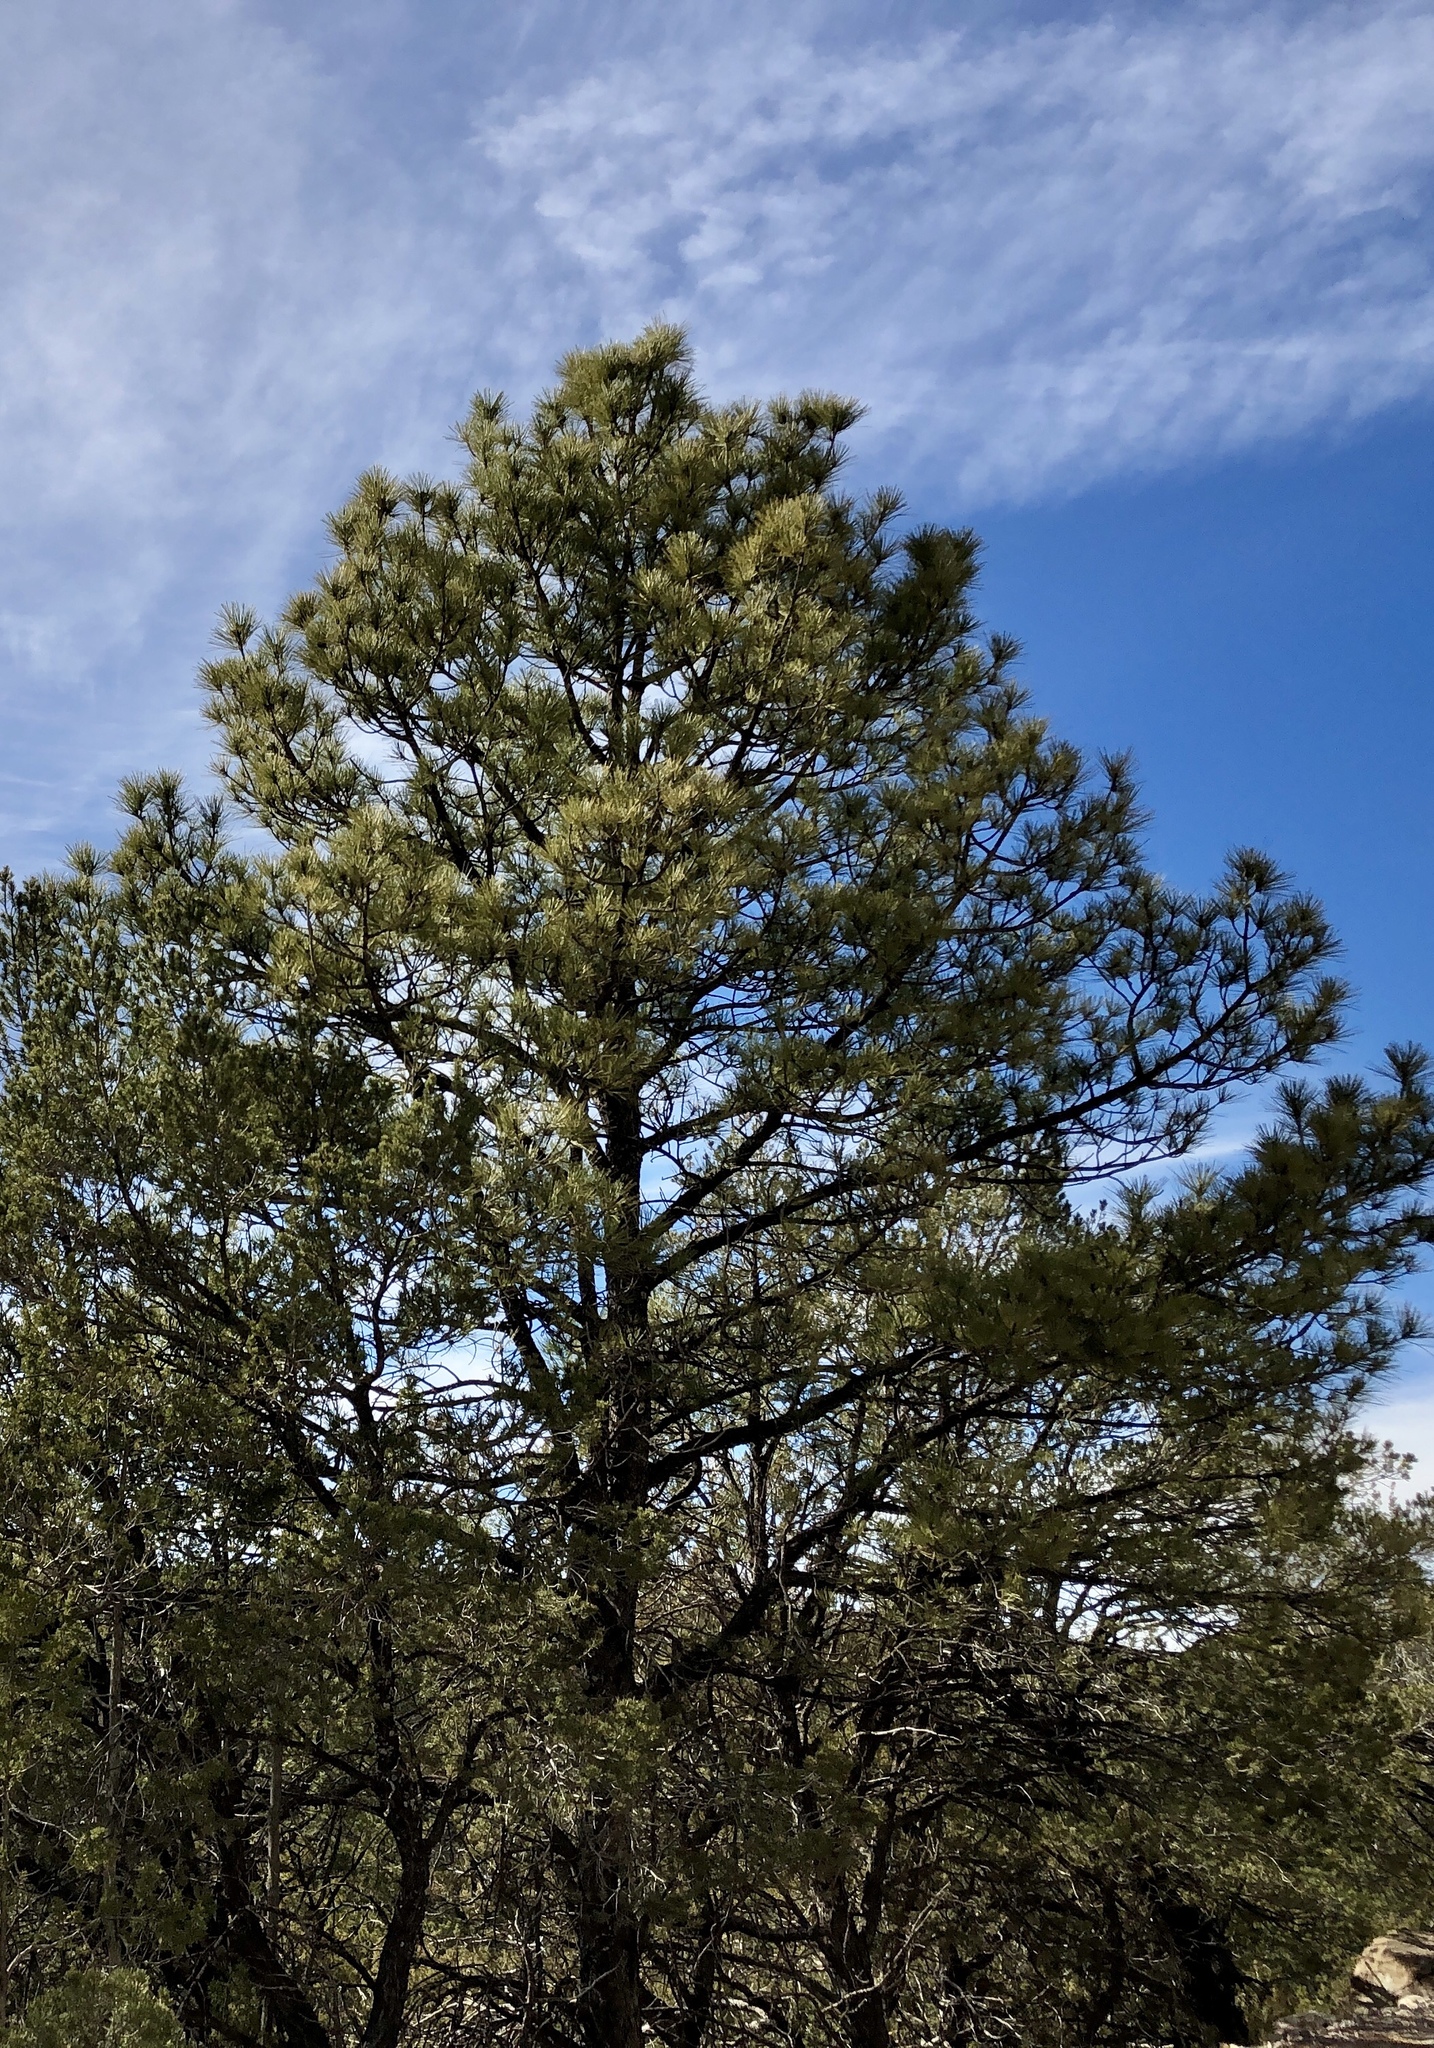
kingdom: Plantae
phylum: Tracheophyta
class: Pinopsida
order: Pinales
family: Pinaceae
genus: Pinus
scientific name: Pinus ponderosa
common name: Western yellow-pine
